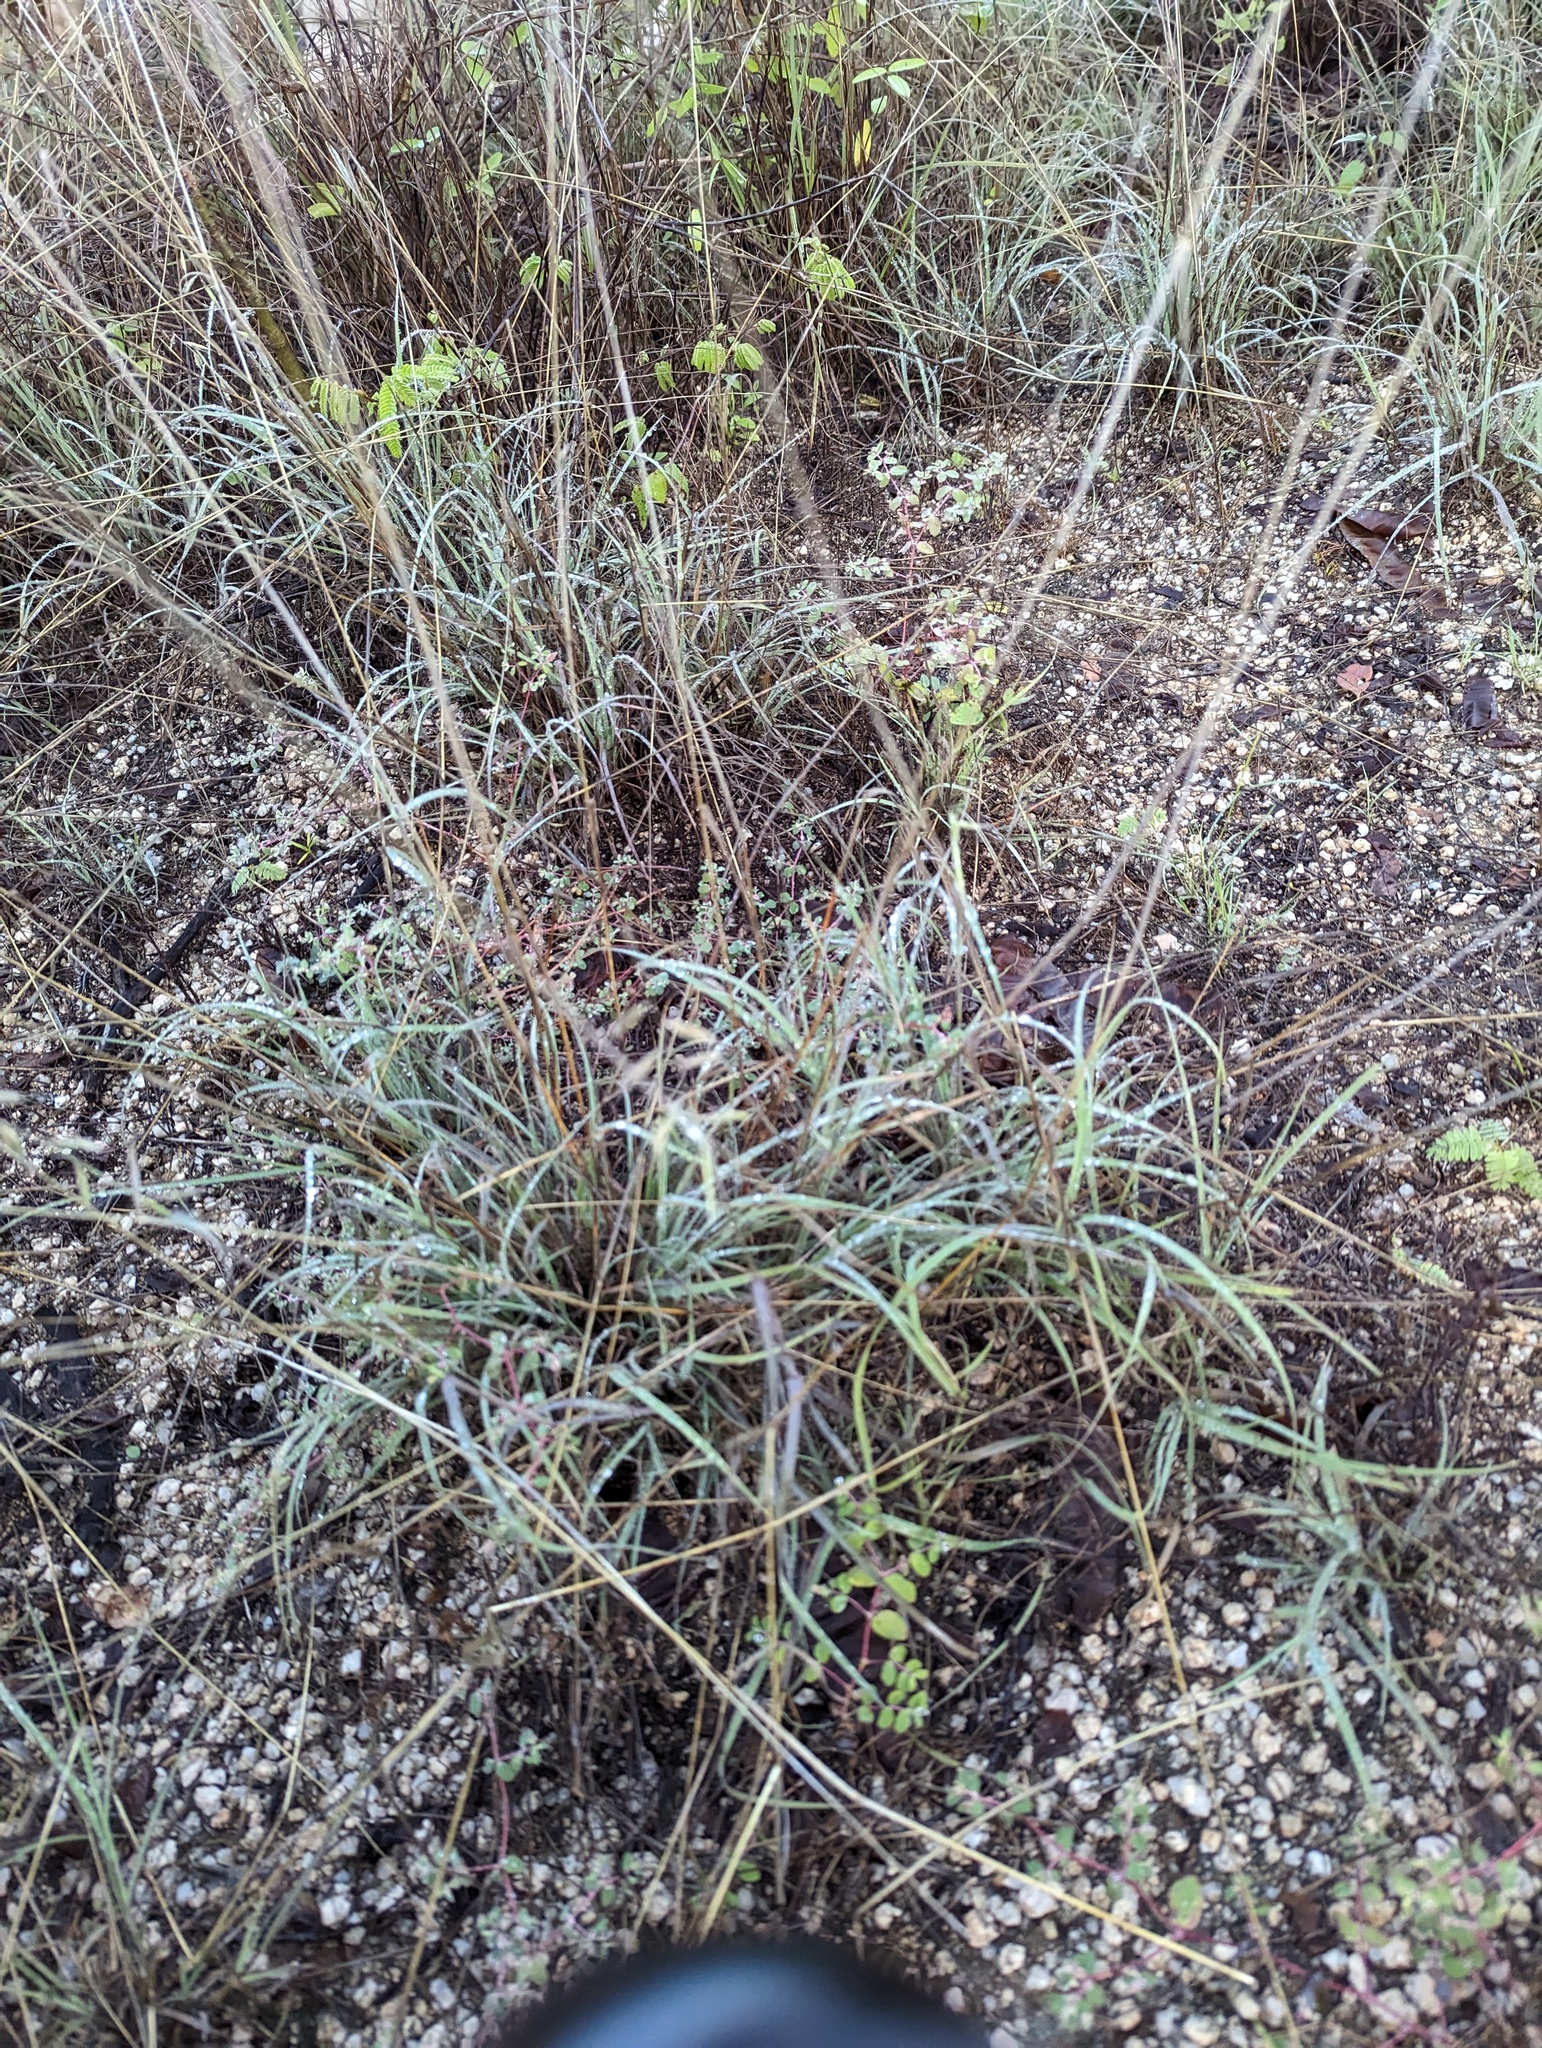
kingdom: Plantae
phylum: Tracheophyta
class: Liliopsida
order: Poales
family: Poaceae
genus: Bouteloua
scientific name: Bouteloua repens
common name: Slender grama
